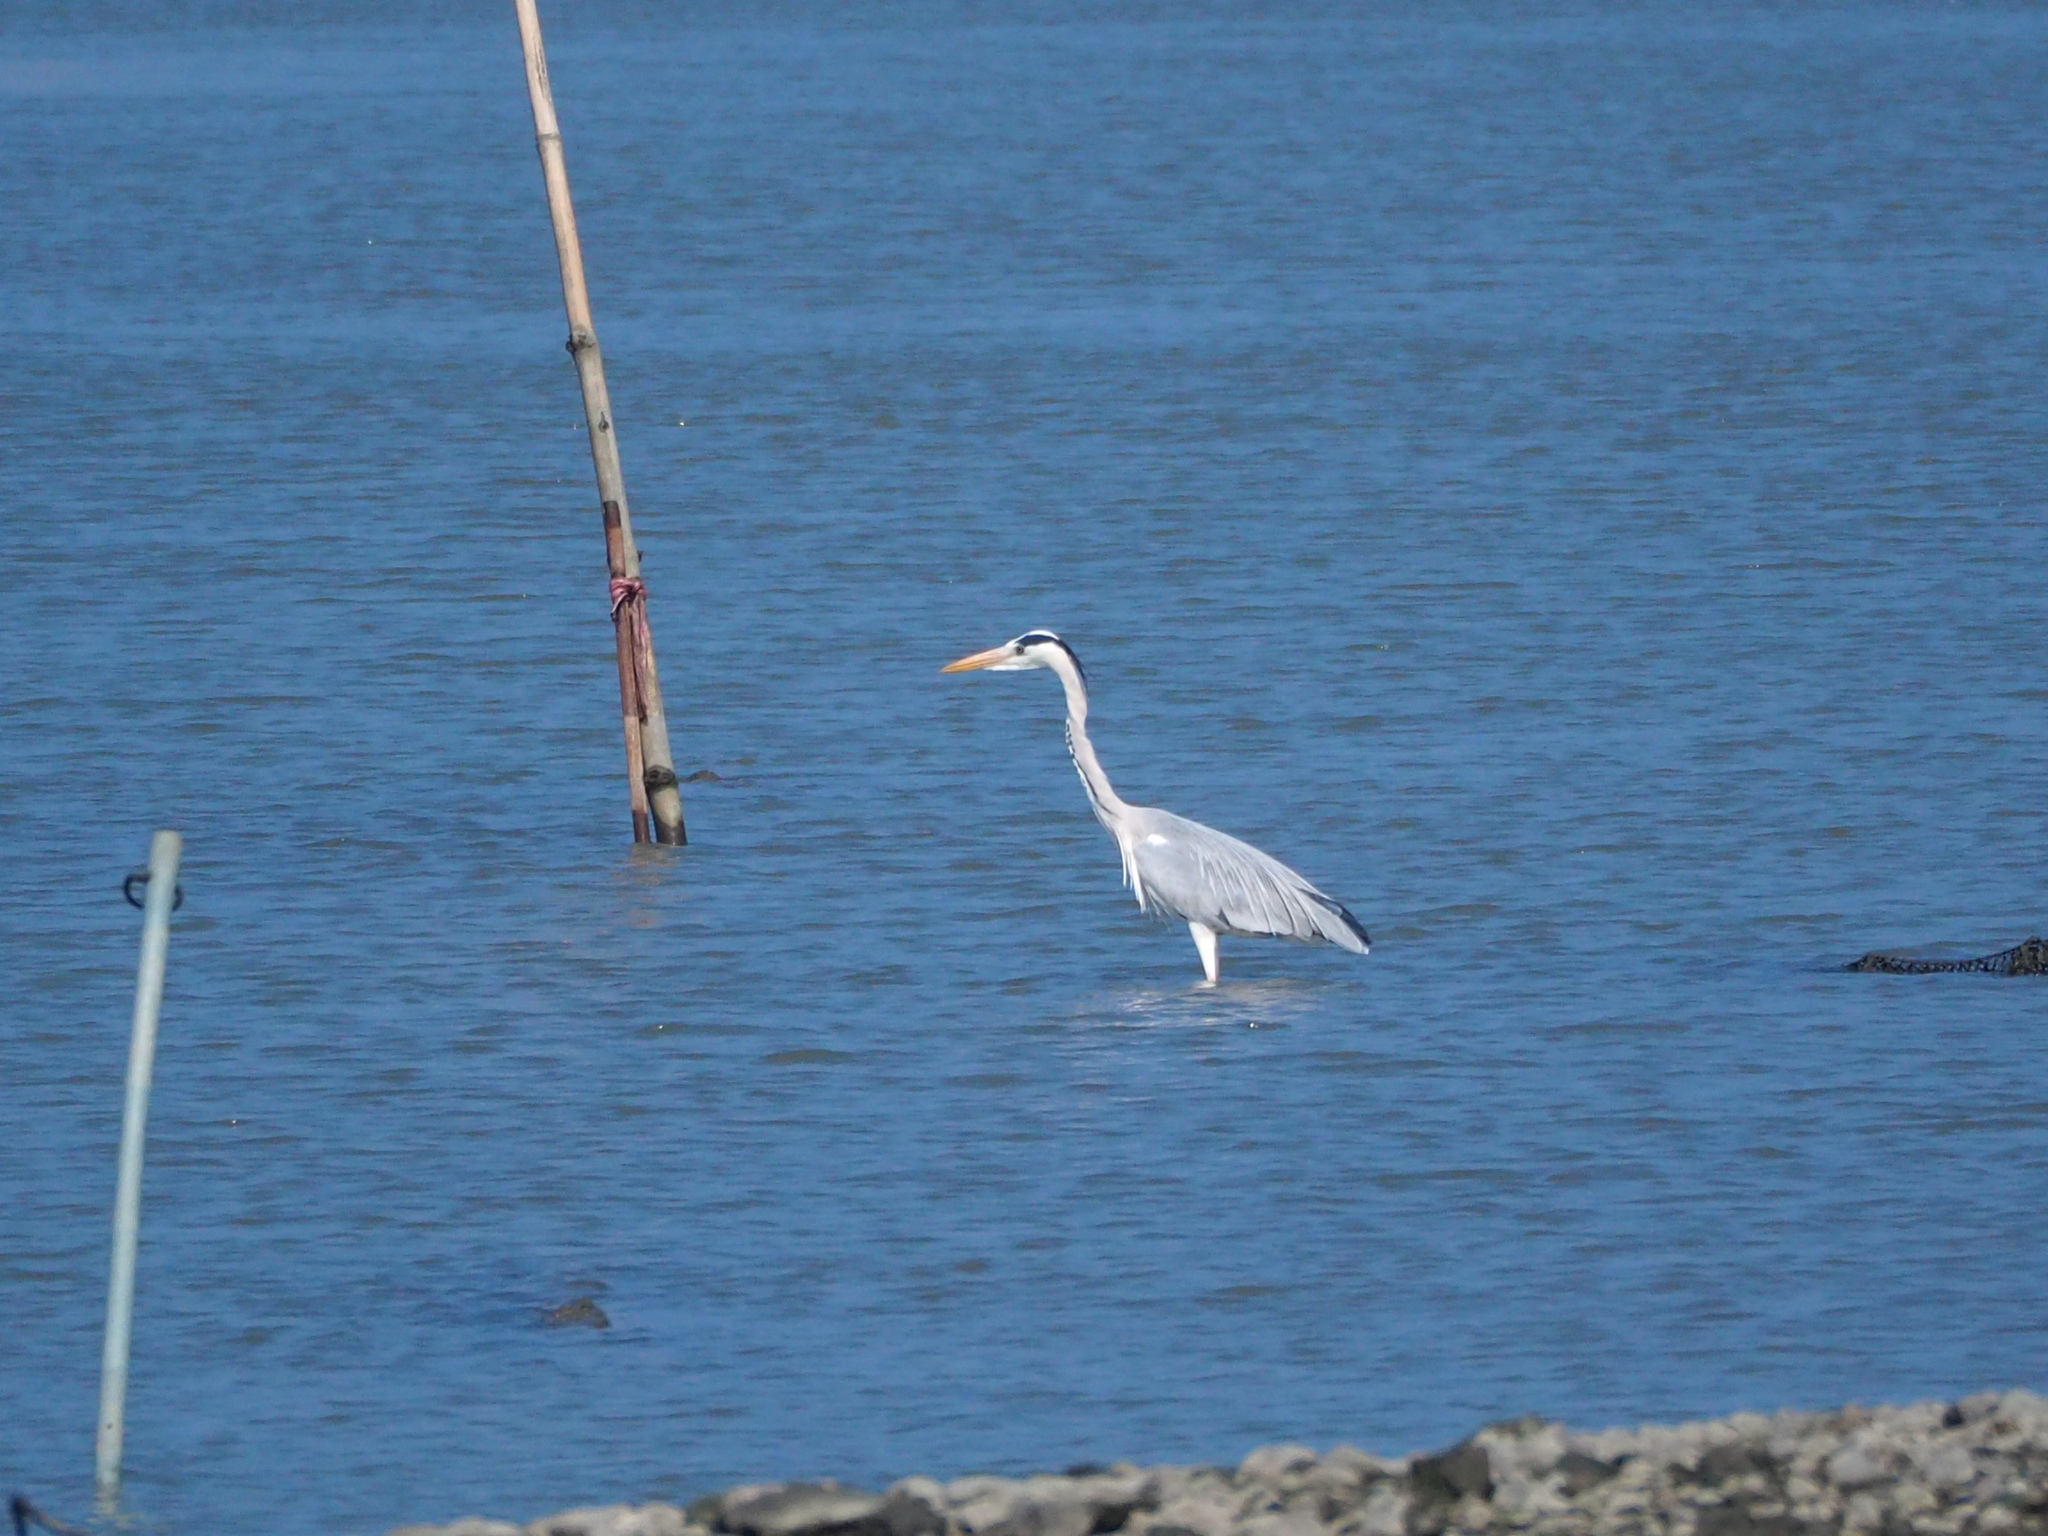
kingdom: Animalia
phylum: Chordata
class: Aves
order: Pelecaniformes
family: Ardeidae
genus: Ardea
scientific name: Ardea cinerea
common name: Grey heron
